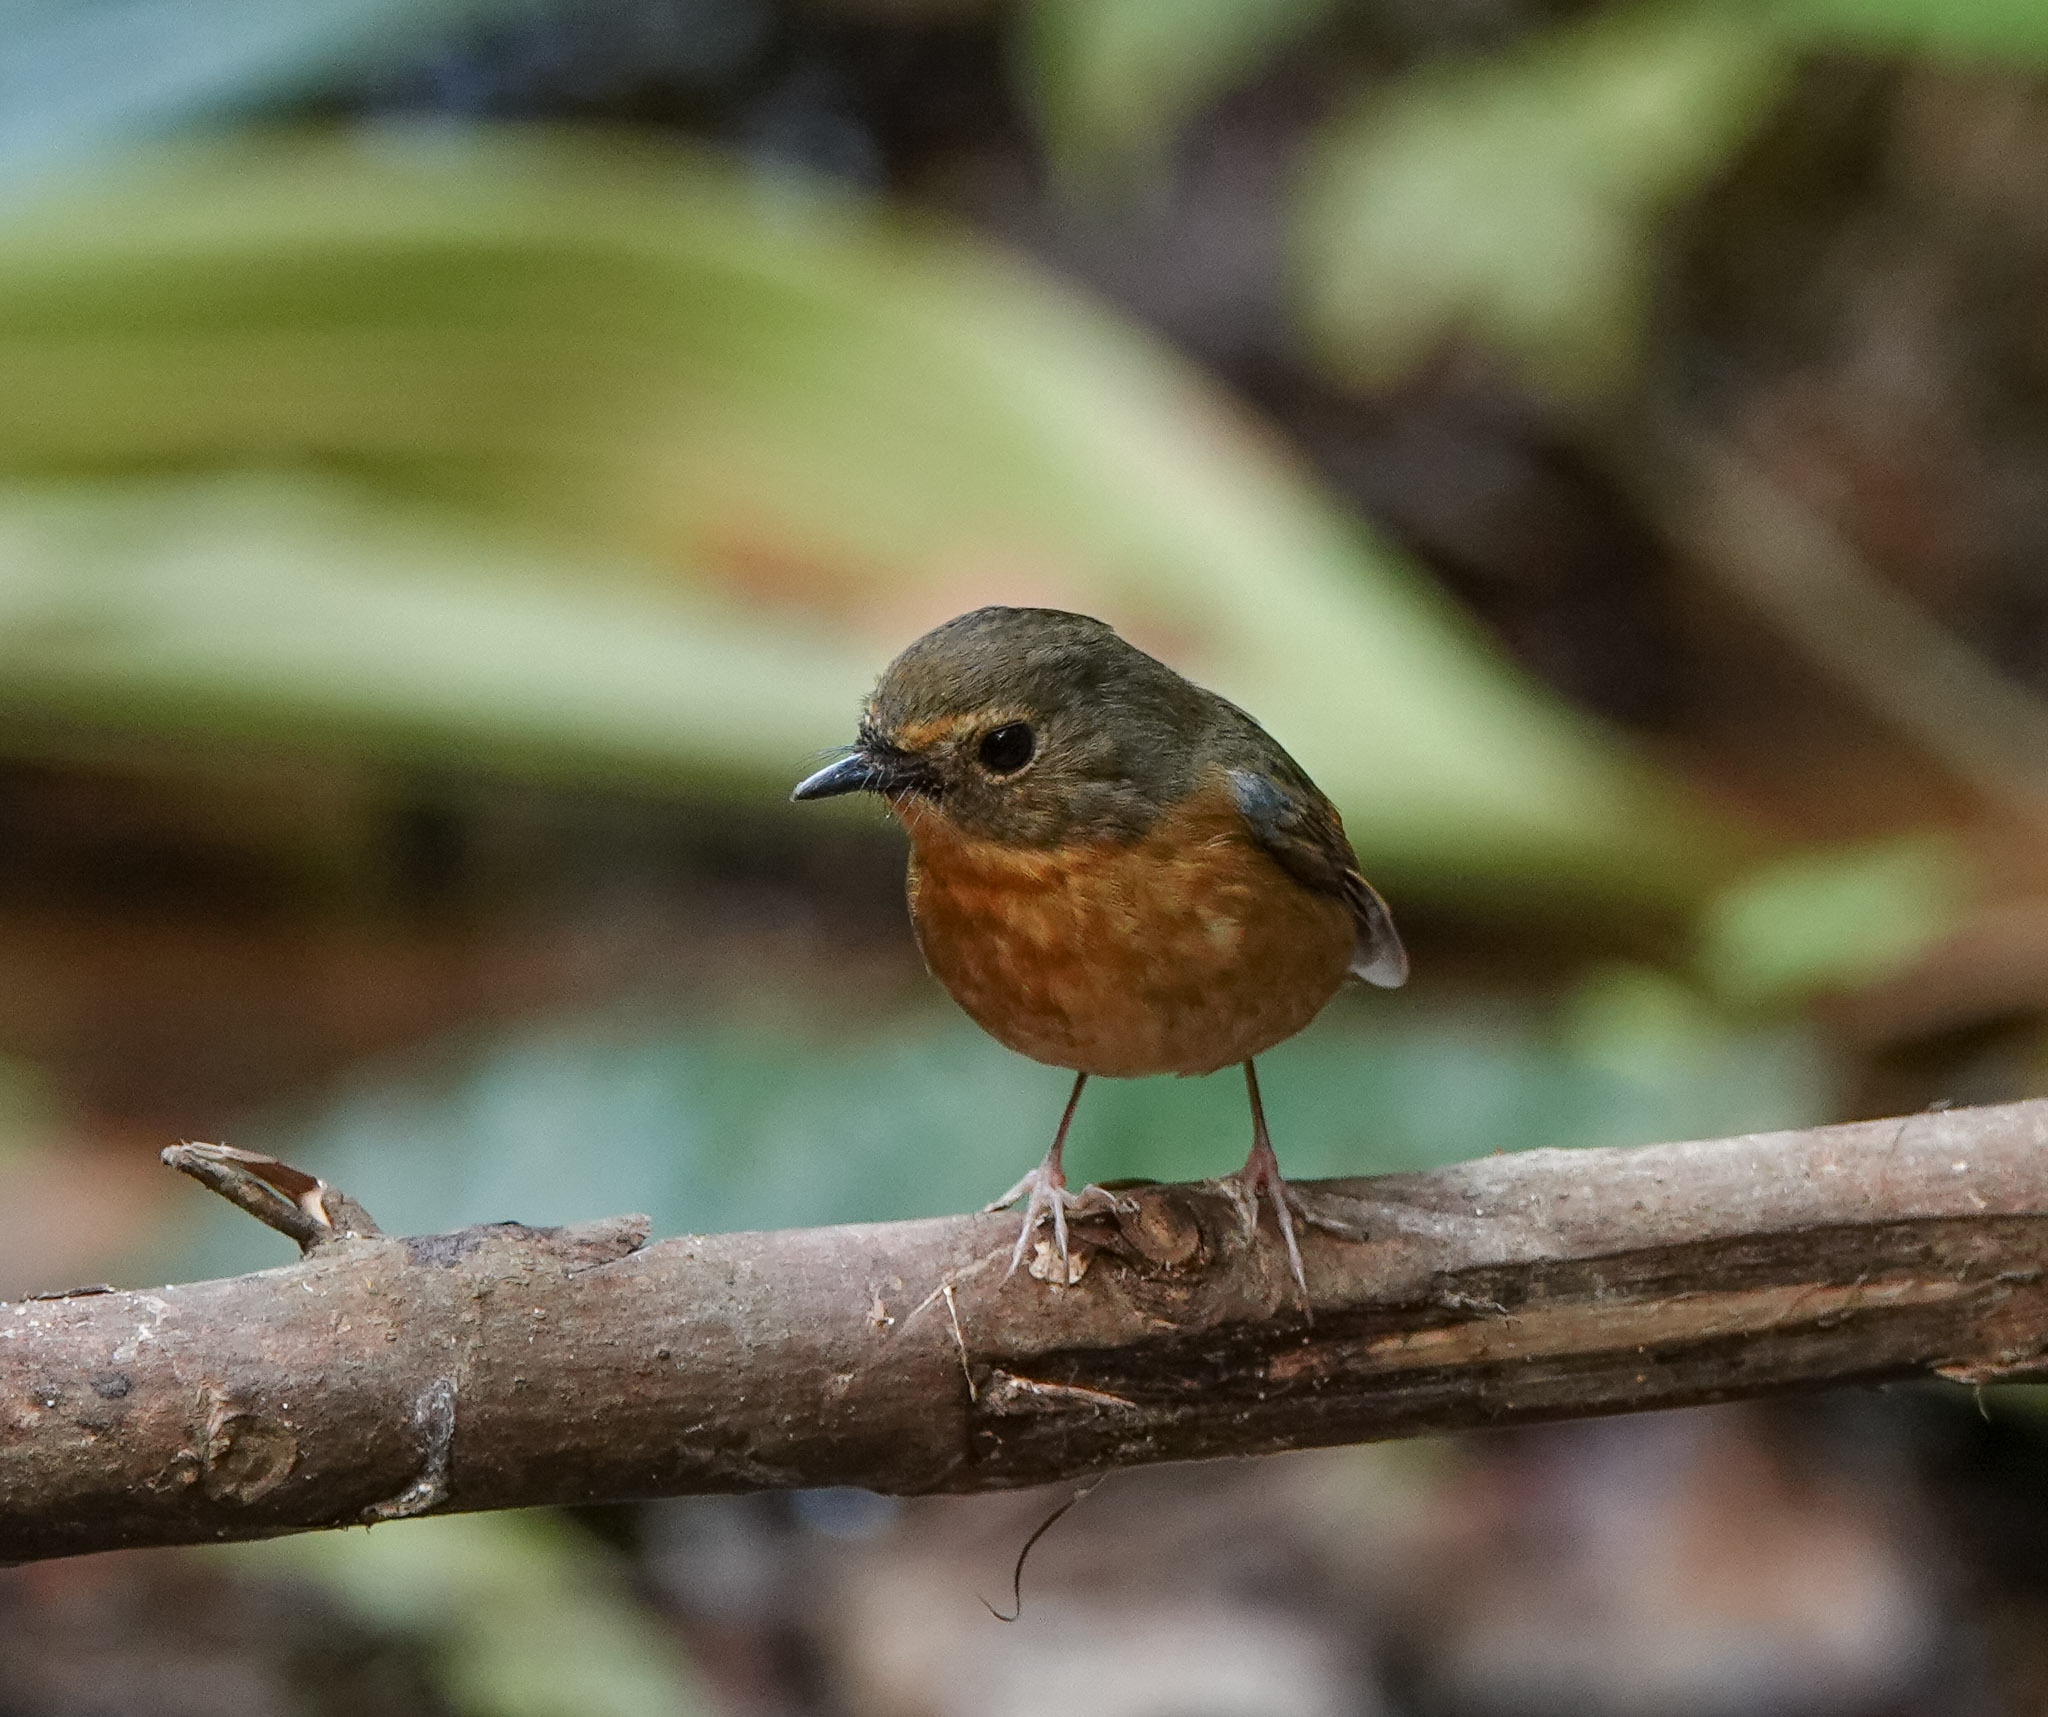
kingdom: Animalia
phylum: Chordata
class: Aves
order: Passeriformes
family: Muscicapidae
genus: Ficedula
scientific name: Ficedula hyperythra
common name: Snowy-browed flycatcher
